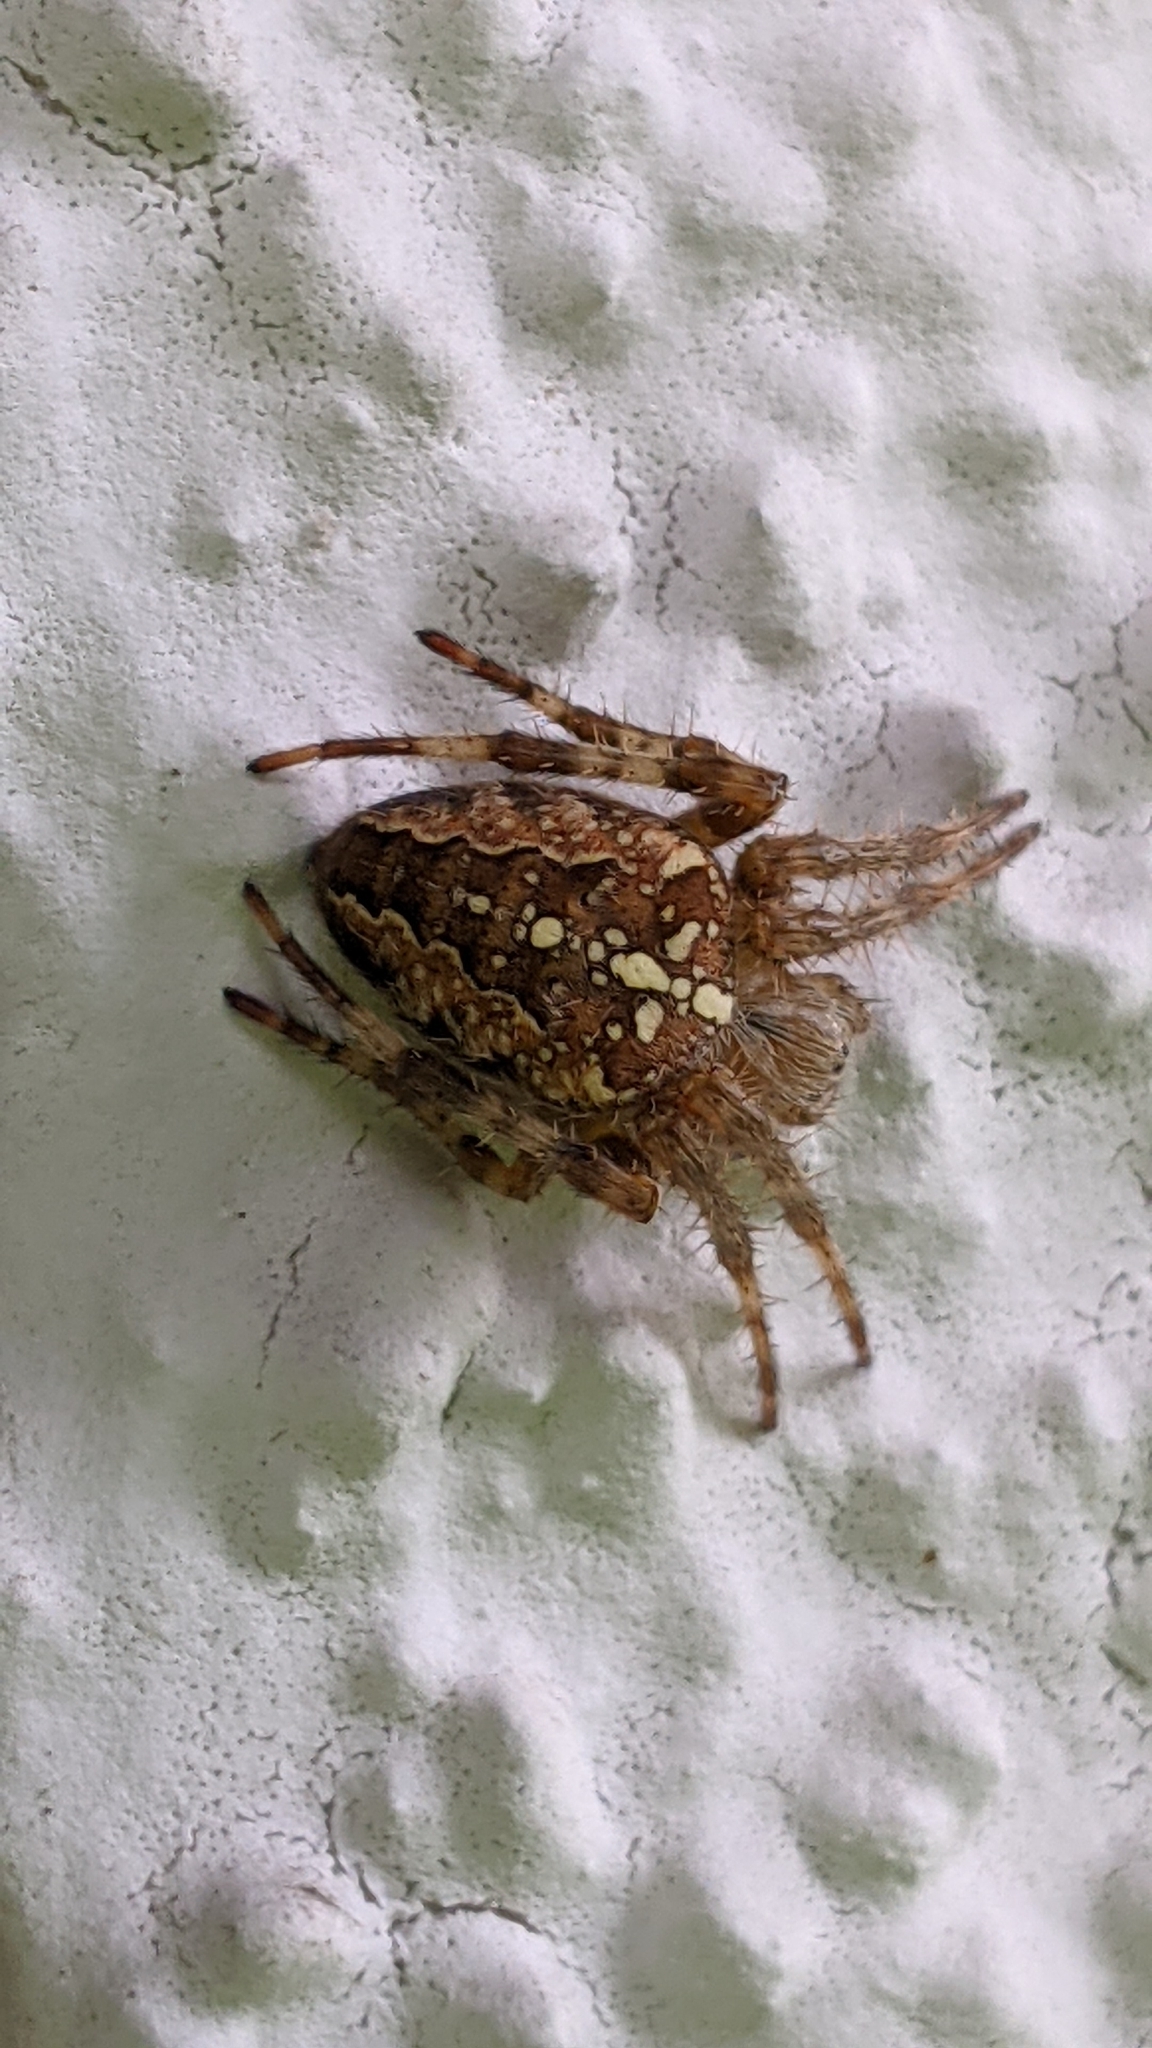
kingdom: Animalia
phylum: Arthropoda
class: Arachnida
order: Araneae
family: Araneidae
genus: Araneus
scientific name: Araneus diadematus
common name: Cross orbweaver
